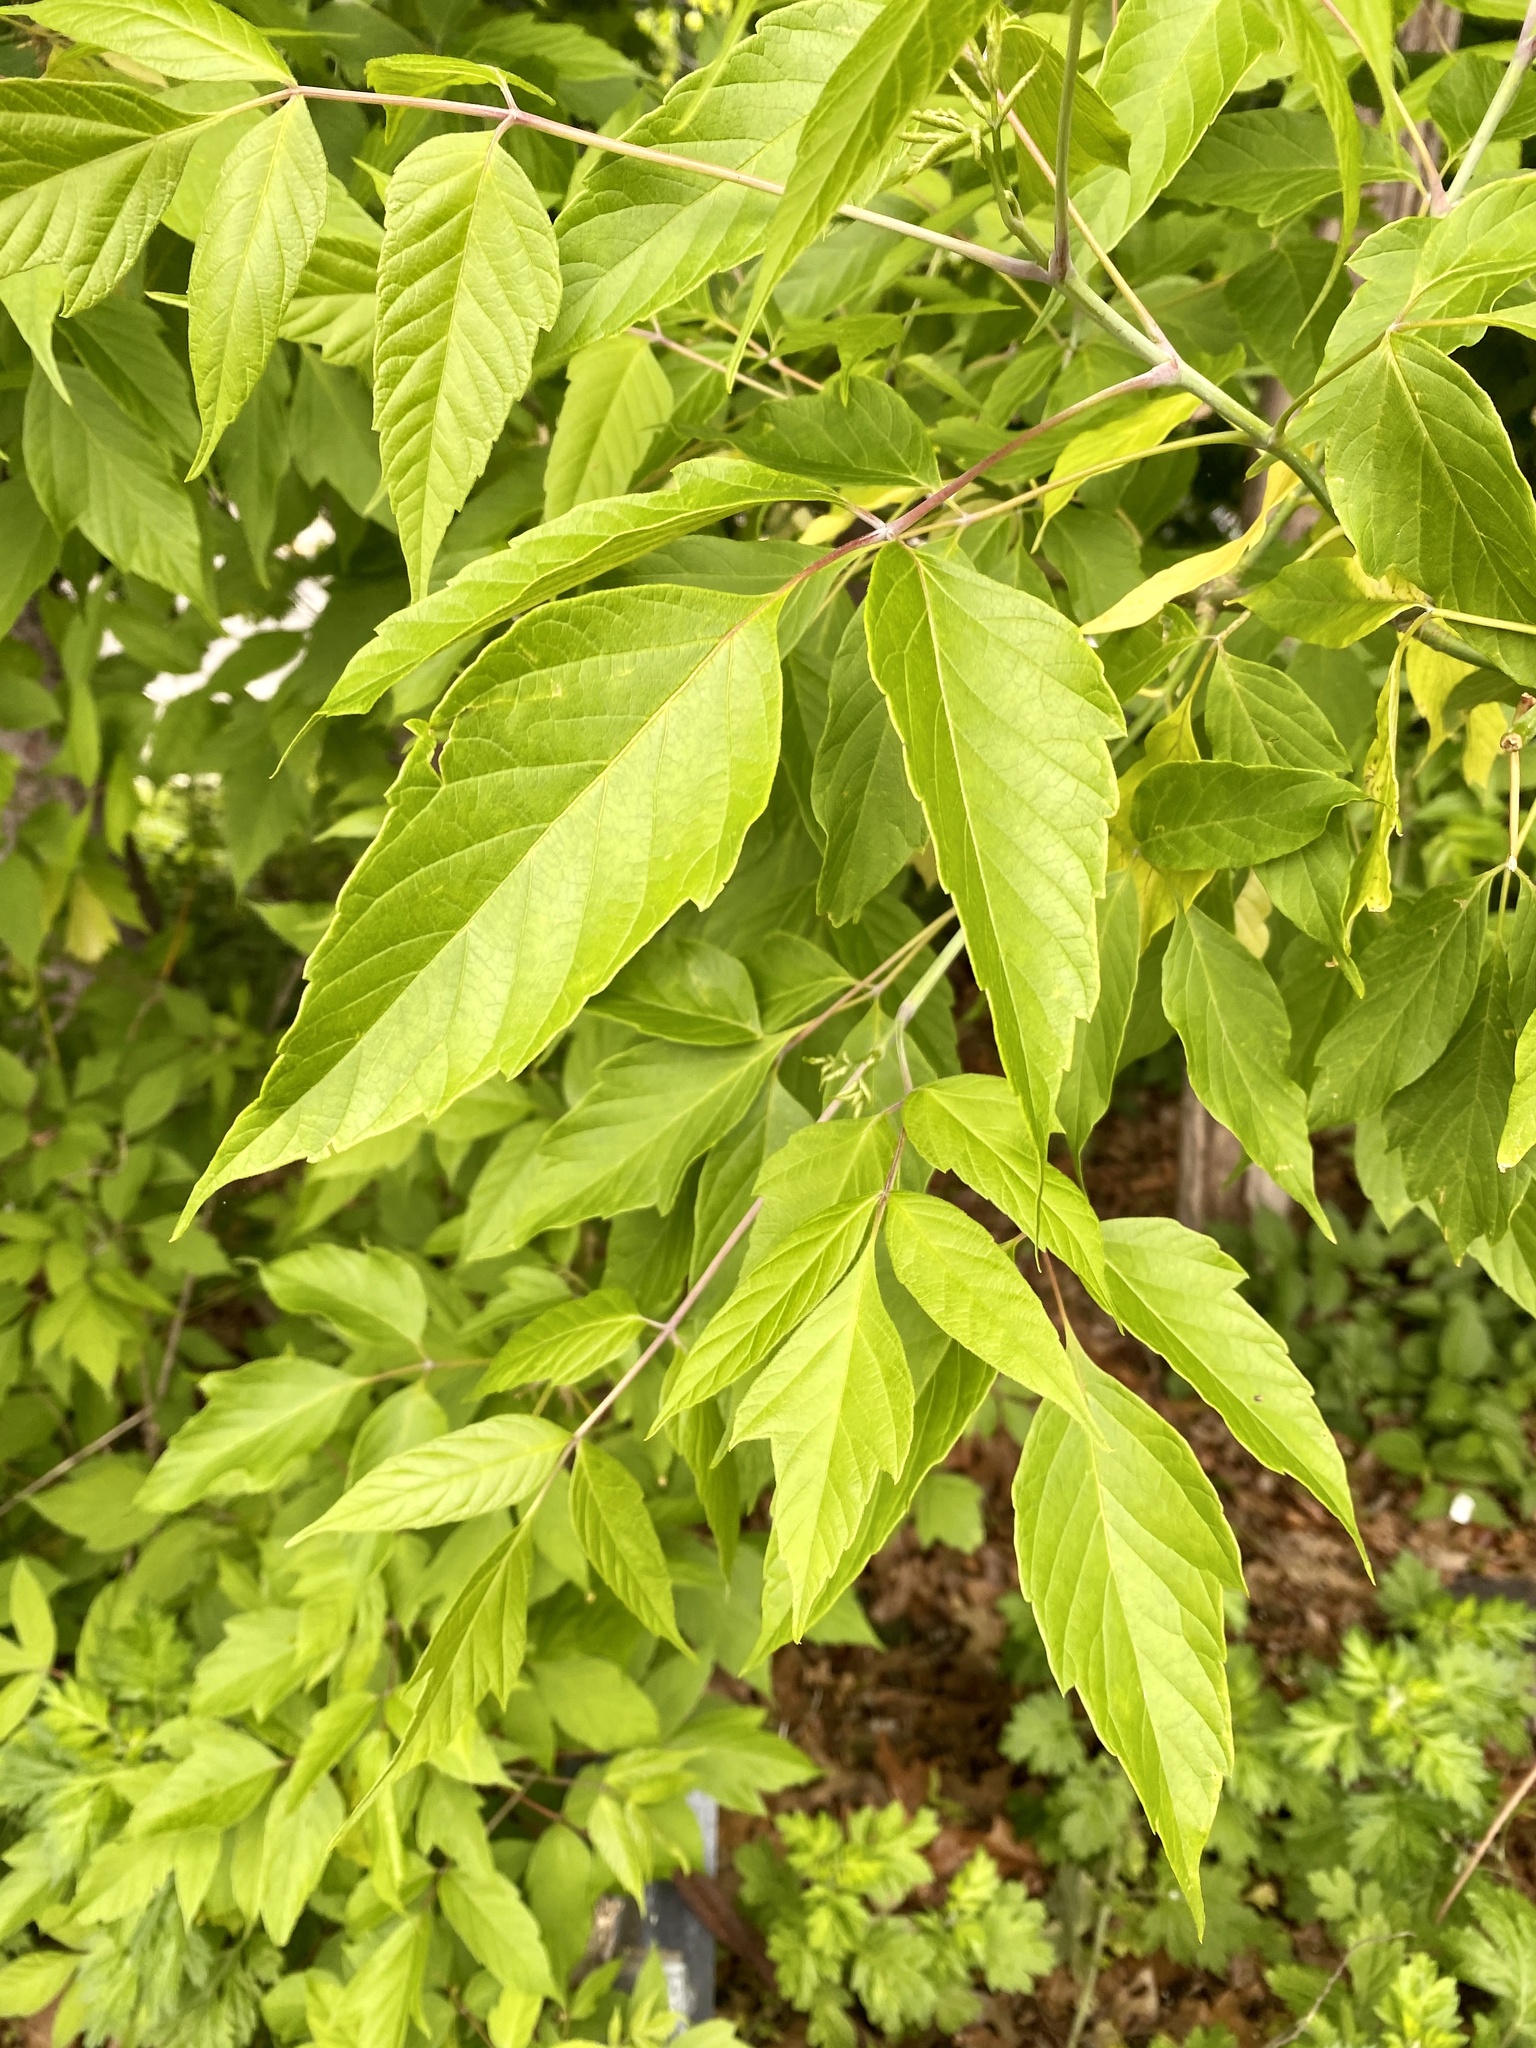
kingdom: Plantae
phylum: Tracheophyta
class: Magnoliopsida
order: Sapindales
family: Sapindaceae
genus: Acer
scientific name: Acer negundo
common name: Ashleaf maple
